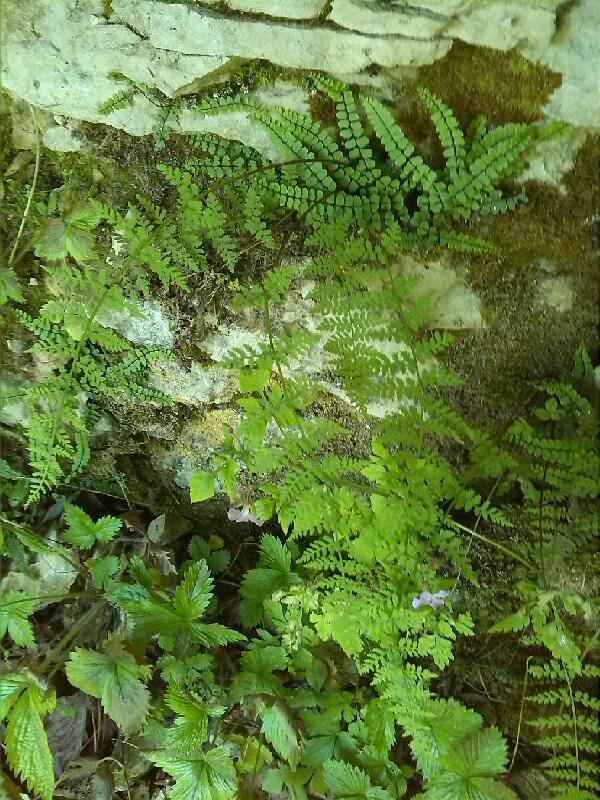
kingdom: Plantae
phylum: Tracheophyta
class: Polypodiopsida
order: Polypodiales
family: Cystopteridaceae
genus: Cystopteris
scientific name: Cystopteris fragilis
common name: Brittle bladder fern
